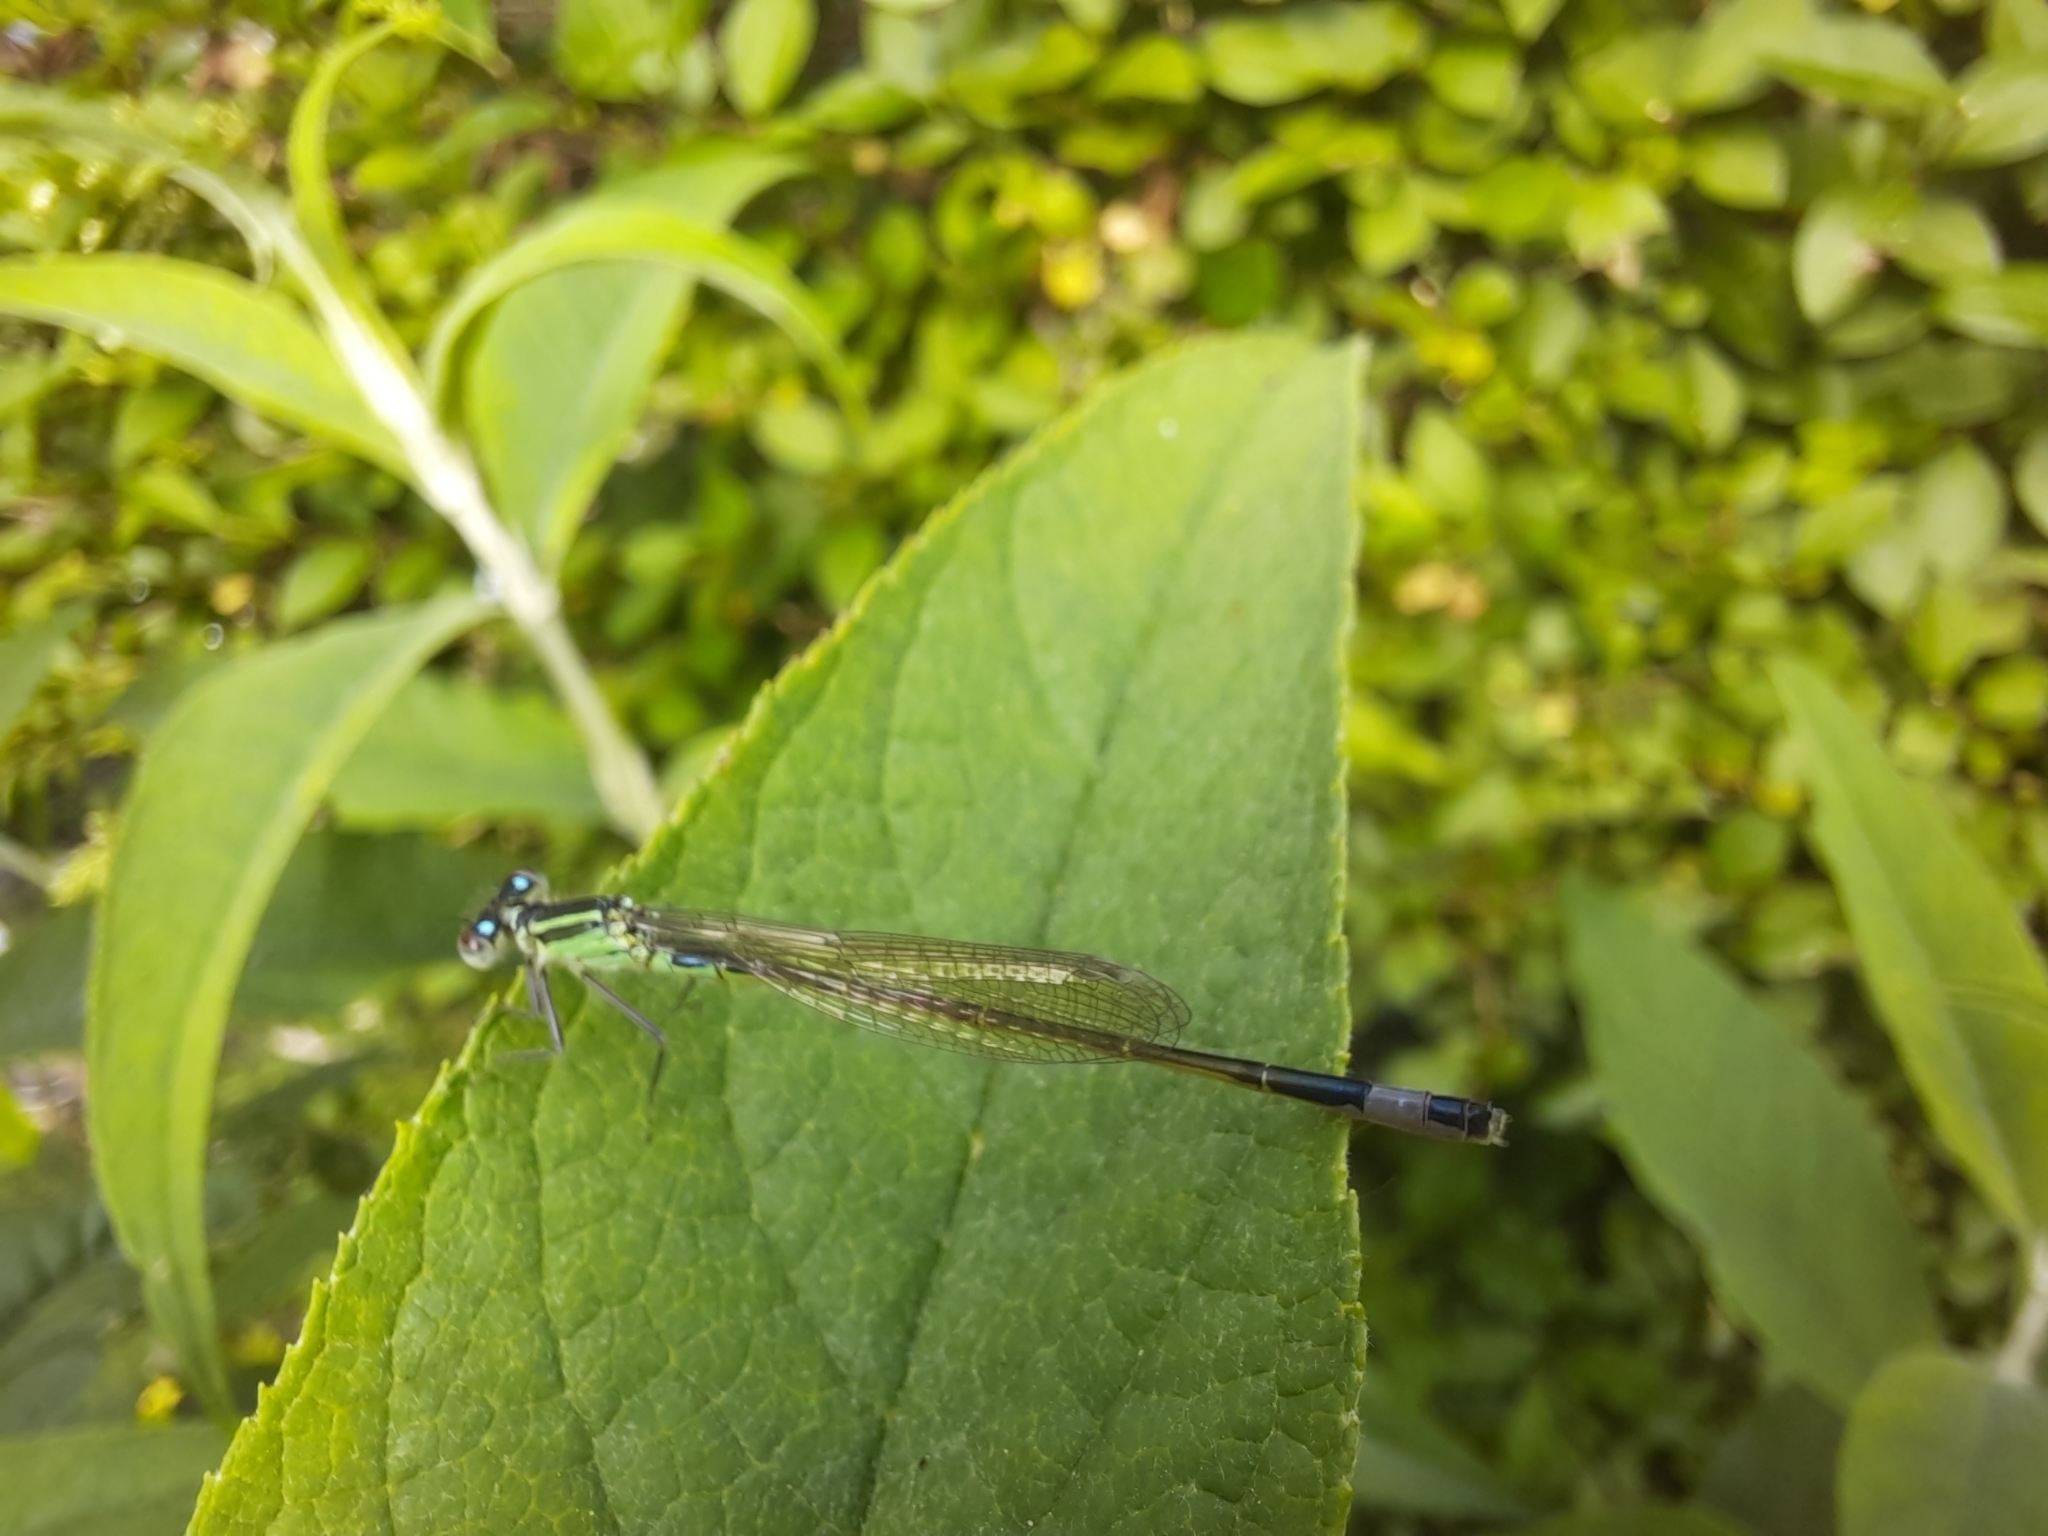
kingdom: Animalia
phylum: Arthropoda
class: Insecta
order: Odonata
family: Coenagrionidae
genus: Ischnura
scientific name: Ischnura elegans
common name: Blue-tailed damselfly
